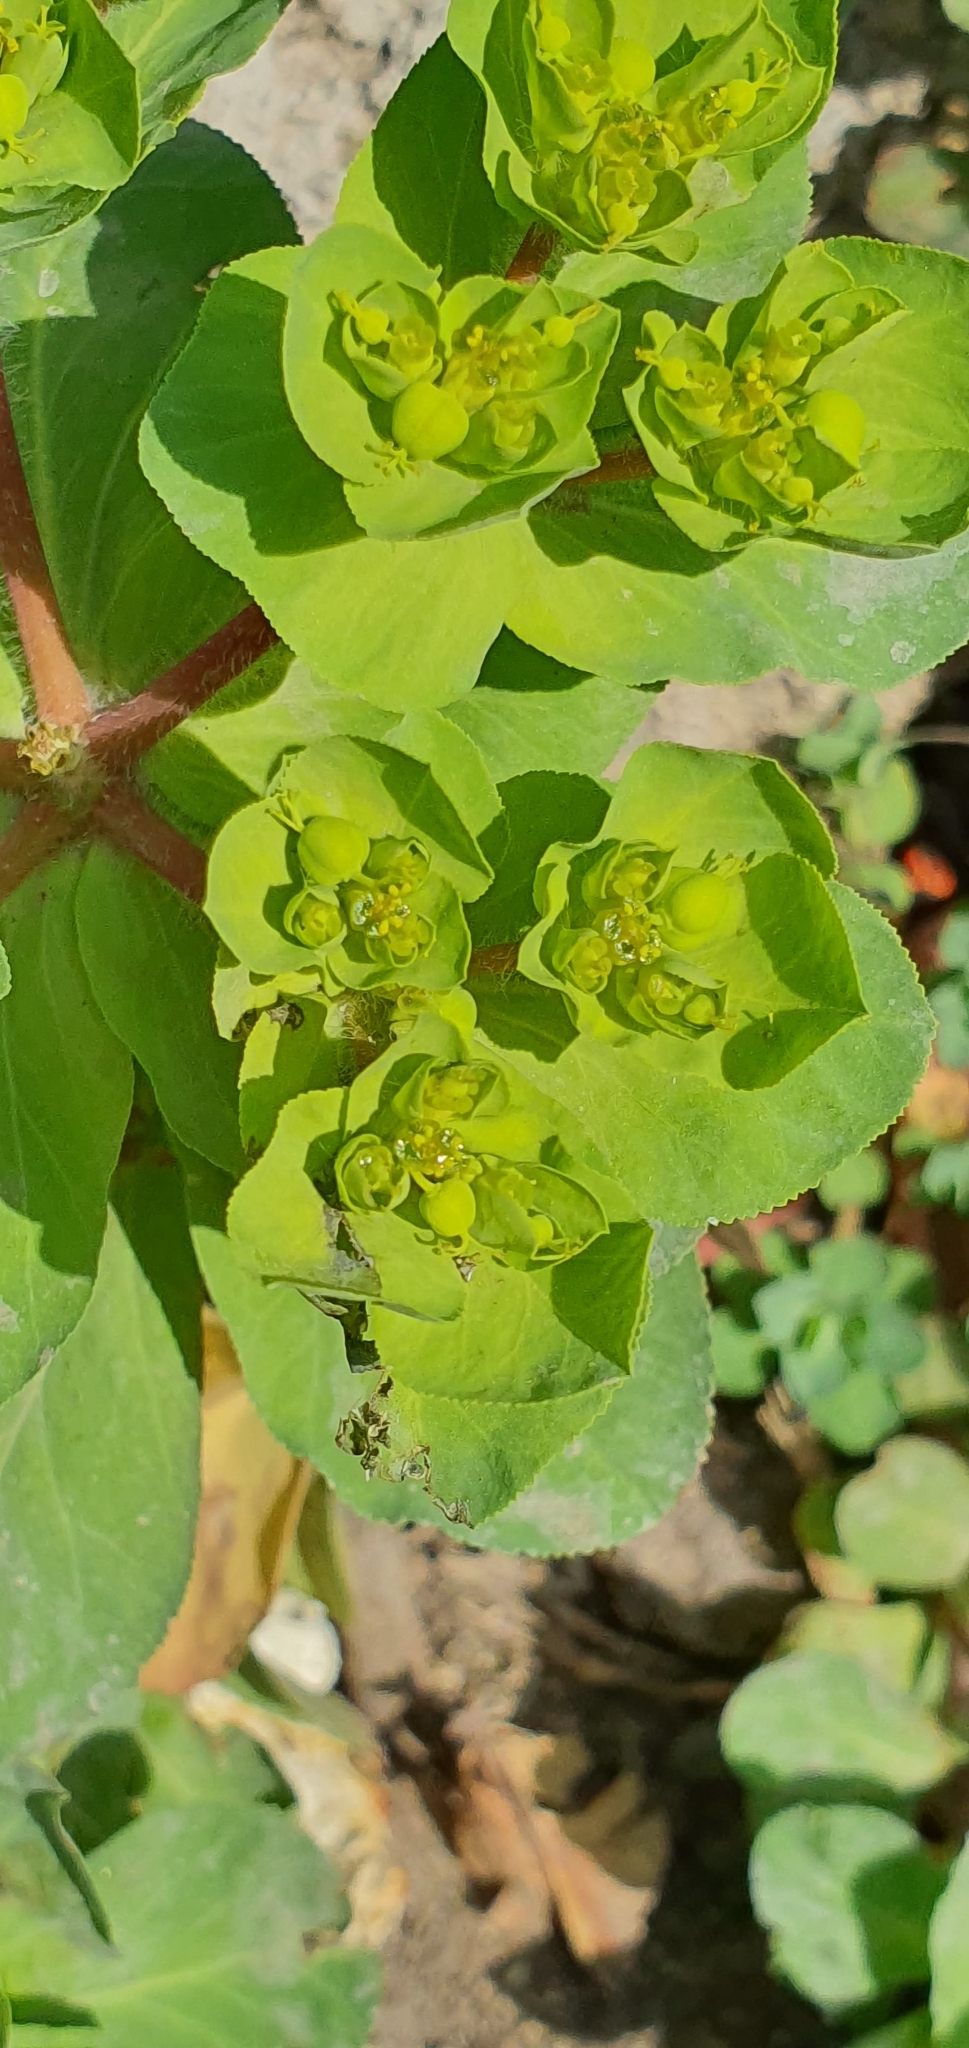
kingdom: Plantae
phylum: Tracheophyta
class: Magnoliopsida
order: Malpighiales
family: Euphorbiaceae
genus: Euphorbia
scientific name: Euphorbia helioscopia
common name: Sun spurge
